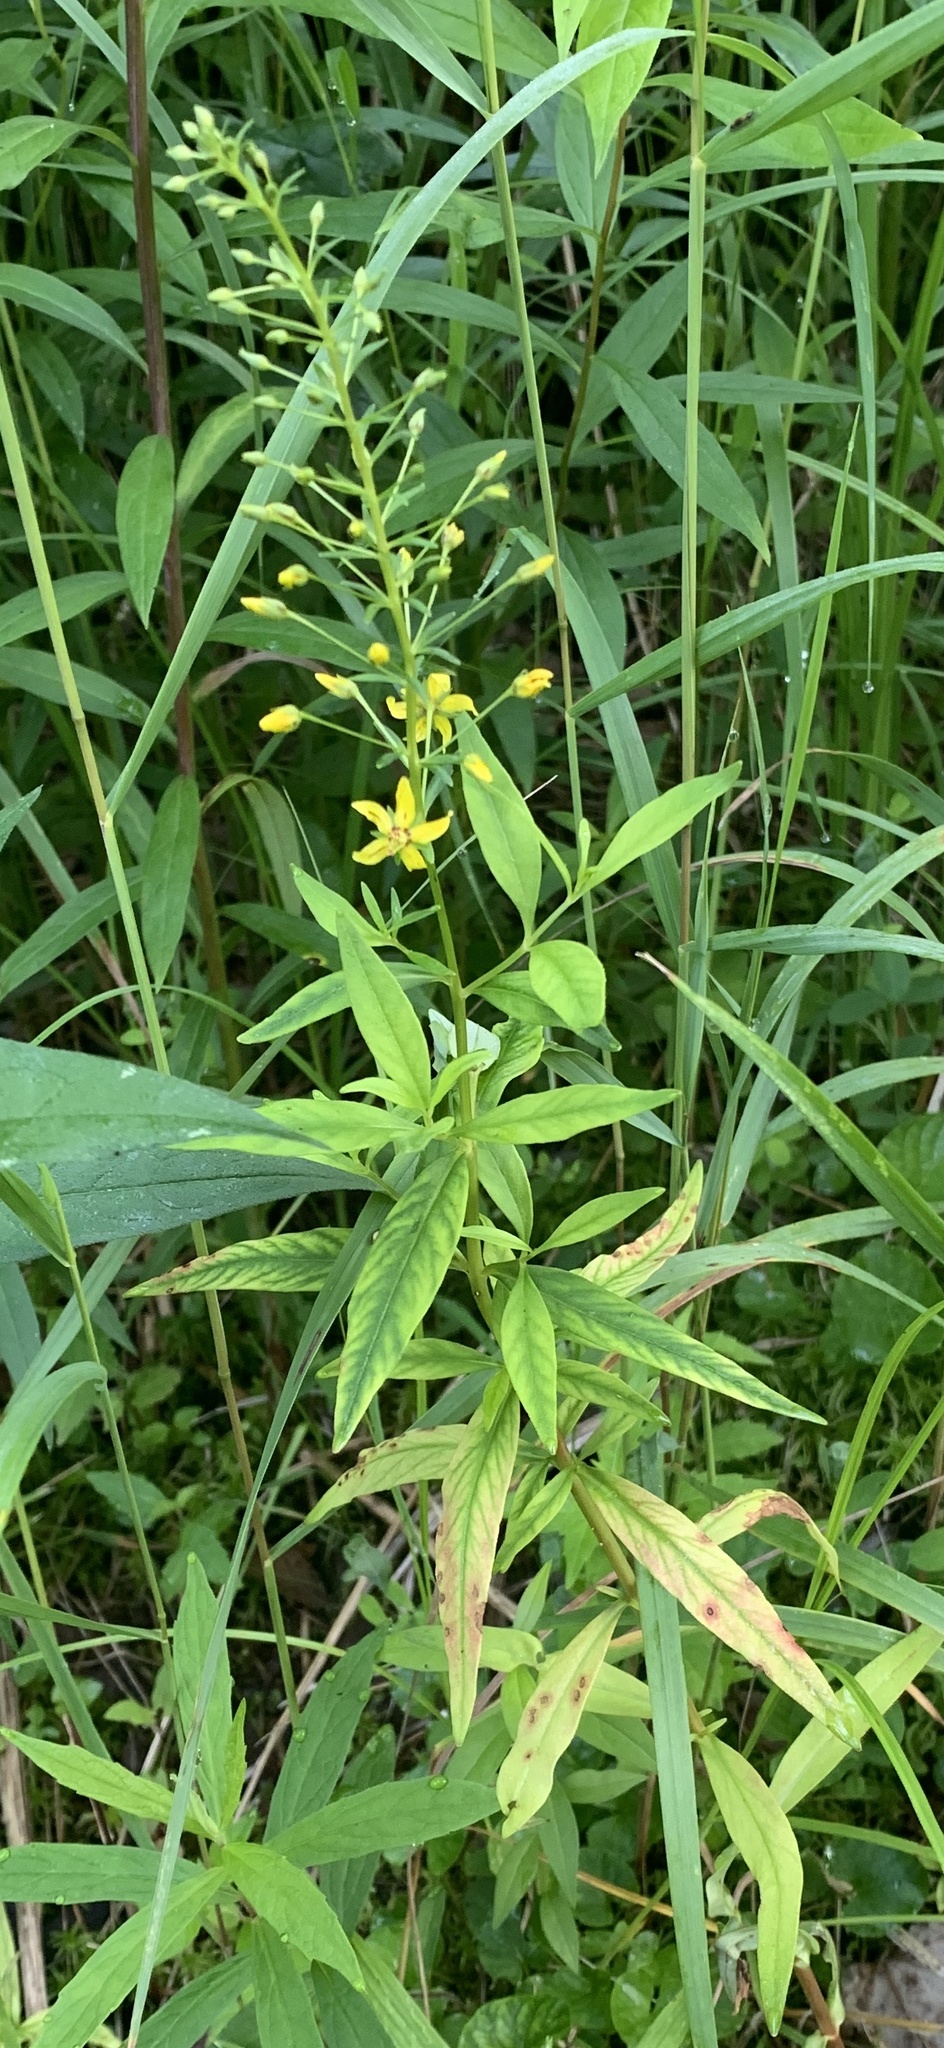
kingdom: Plantae
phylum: Tracheophyta
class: Magnoliopsida
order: Ericales
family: Primulaceae
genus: Lysimachia
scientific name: Lysimachia terrestris
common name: Lake loosestrife
